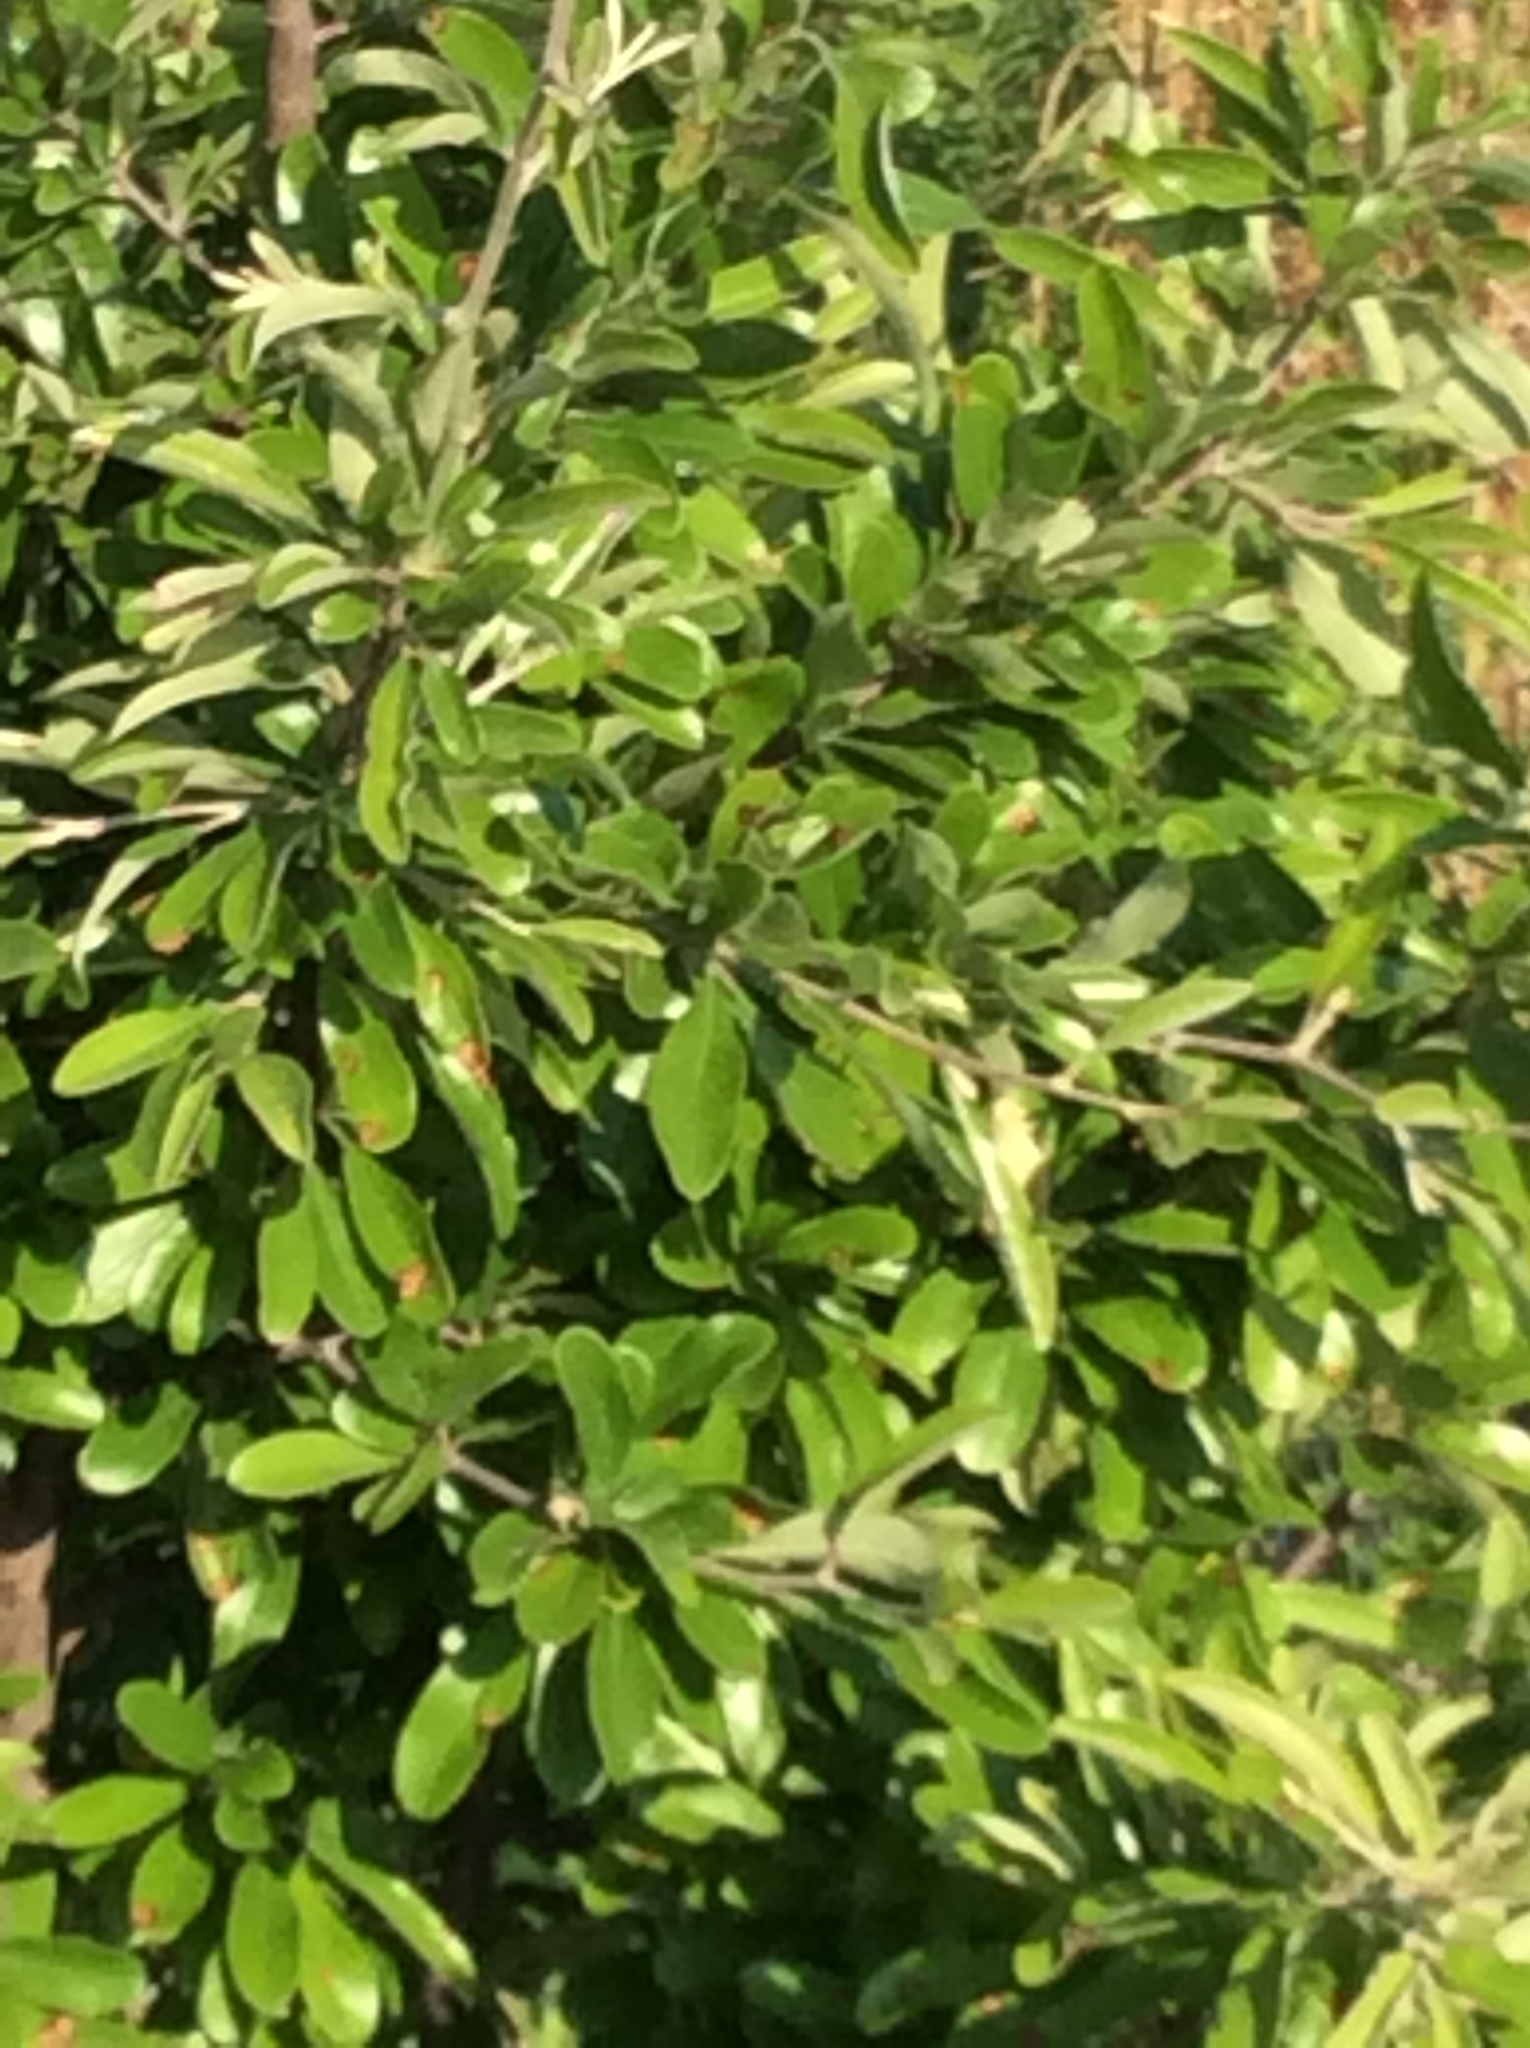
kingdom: Plantae
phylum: Tracheophyta
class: Magnoliopsida
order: Ericales
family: Sapotaceae
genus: Sideroxylon
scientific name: Sideroxylon lanuginosum
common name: Chittamwood
